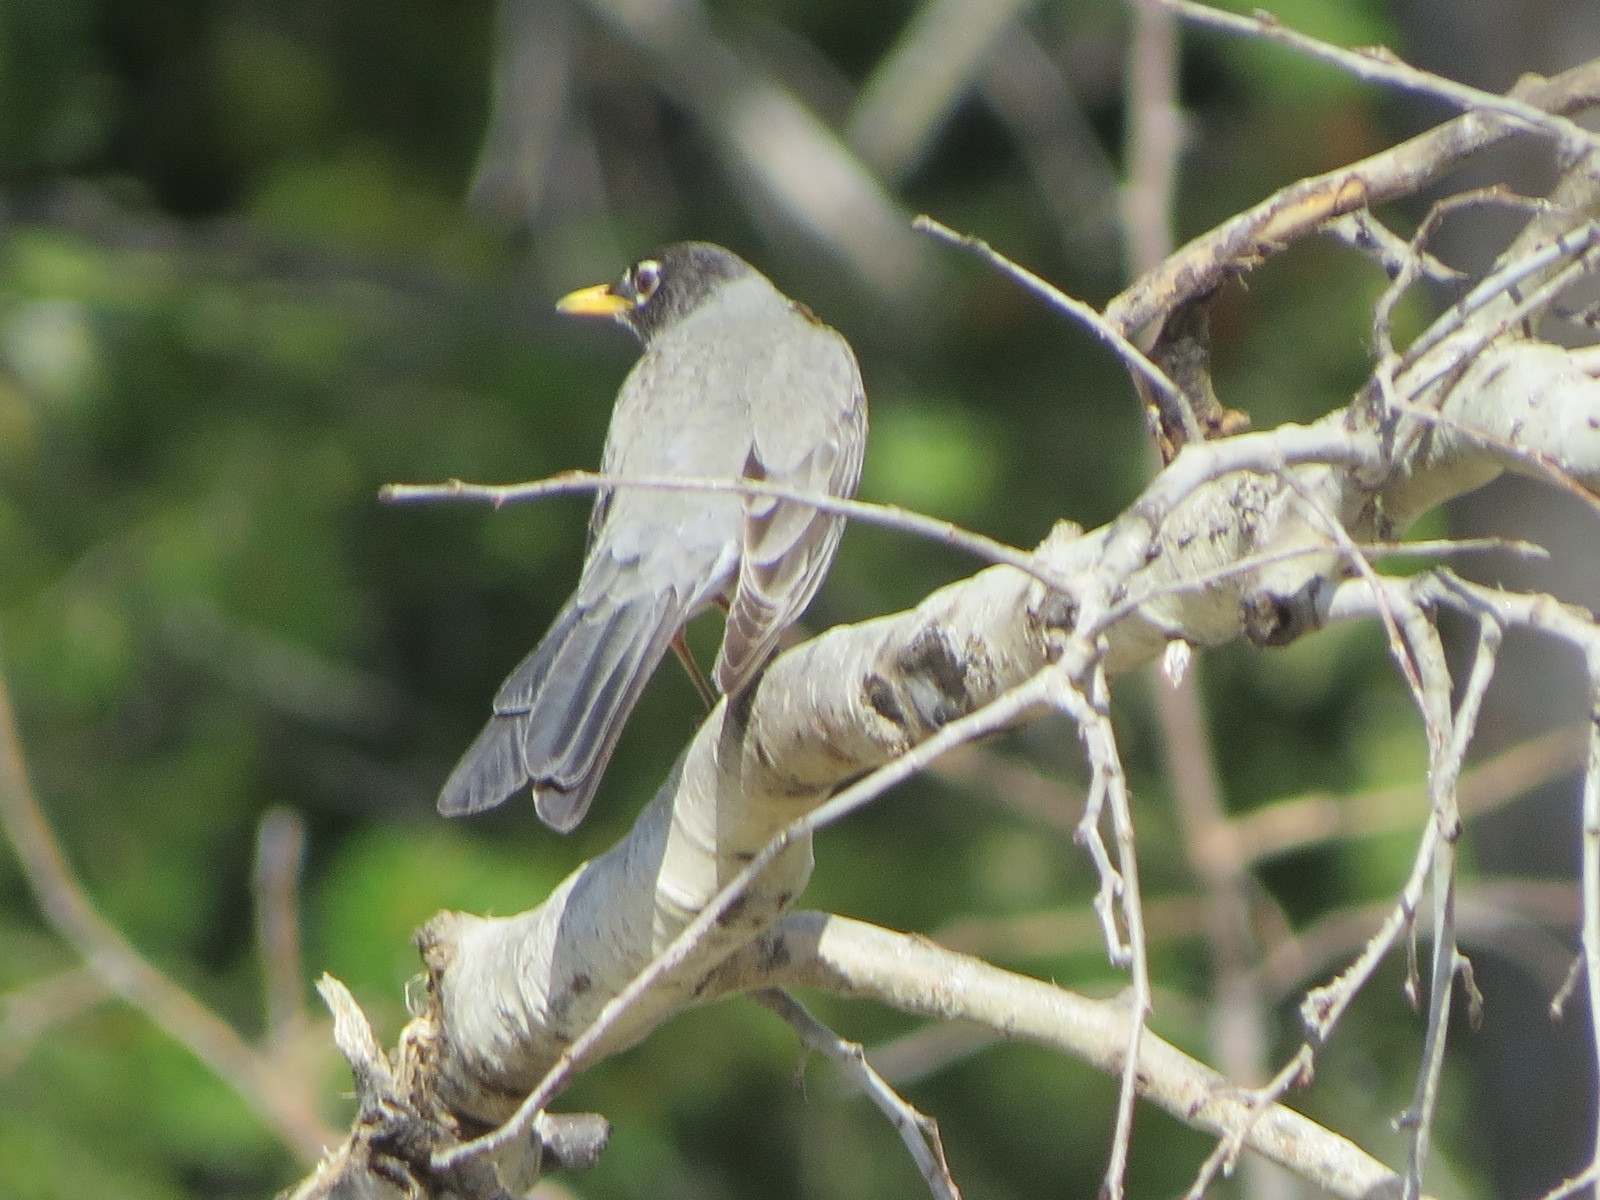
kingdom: Animalia
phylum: Chordata
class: Aves
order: Passeriformes
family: Turdidae
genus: Turdus
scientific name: Turdus migratorius
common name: American robin
